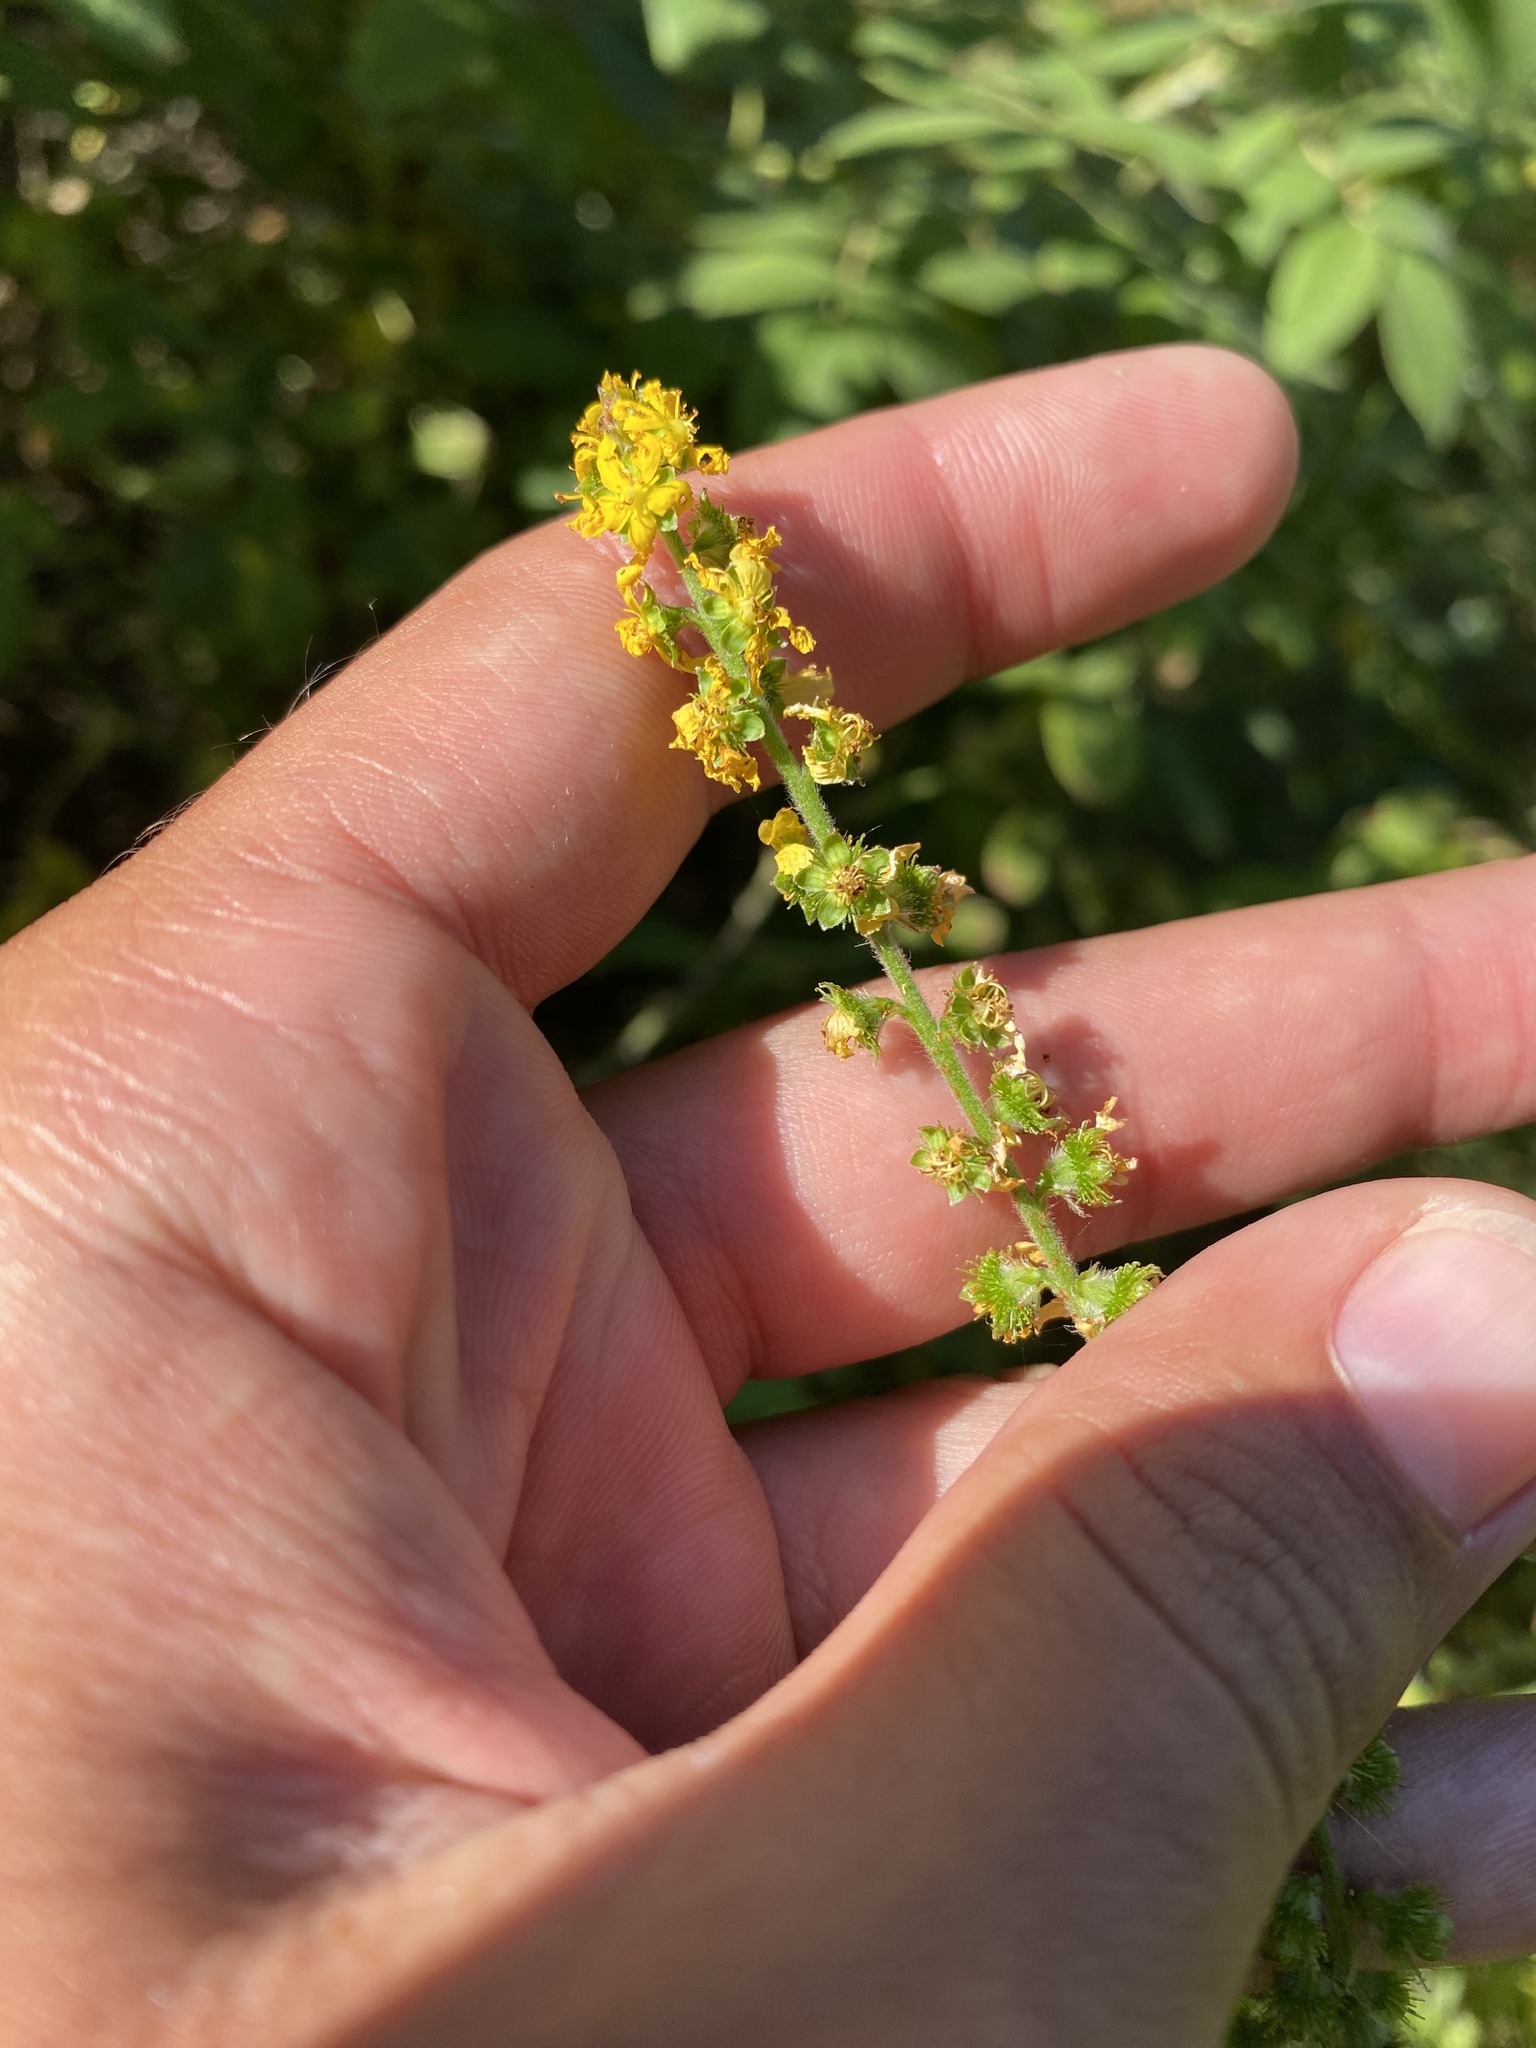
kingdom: Plantae
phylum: Tracheophyta
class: Magnoliopsida
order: Rosales
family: Rosaceae
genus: Agrimonia
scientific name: Agrimonia eupatoria
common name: Agrimony
